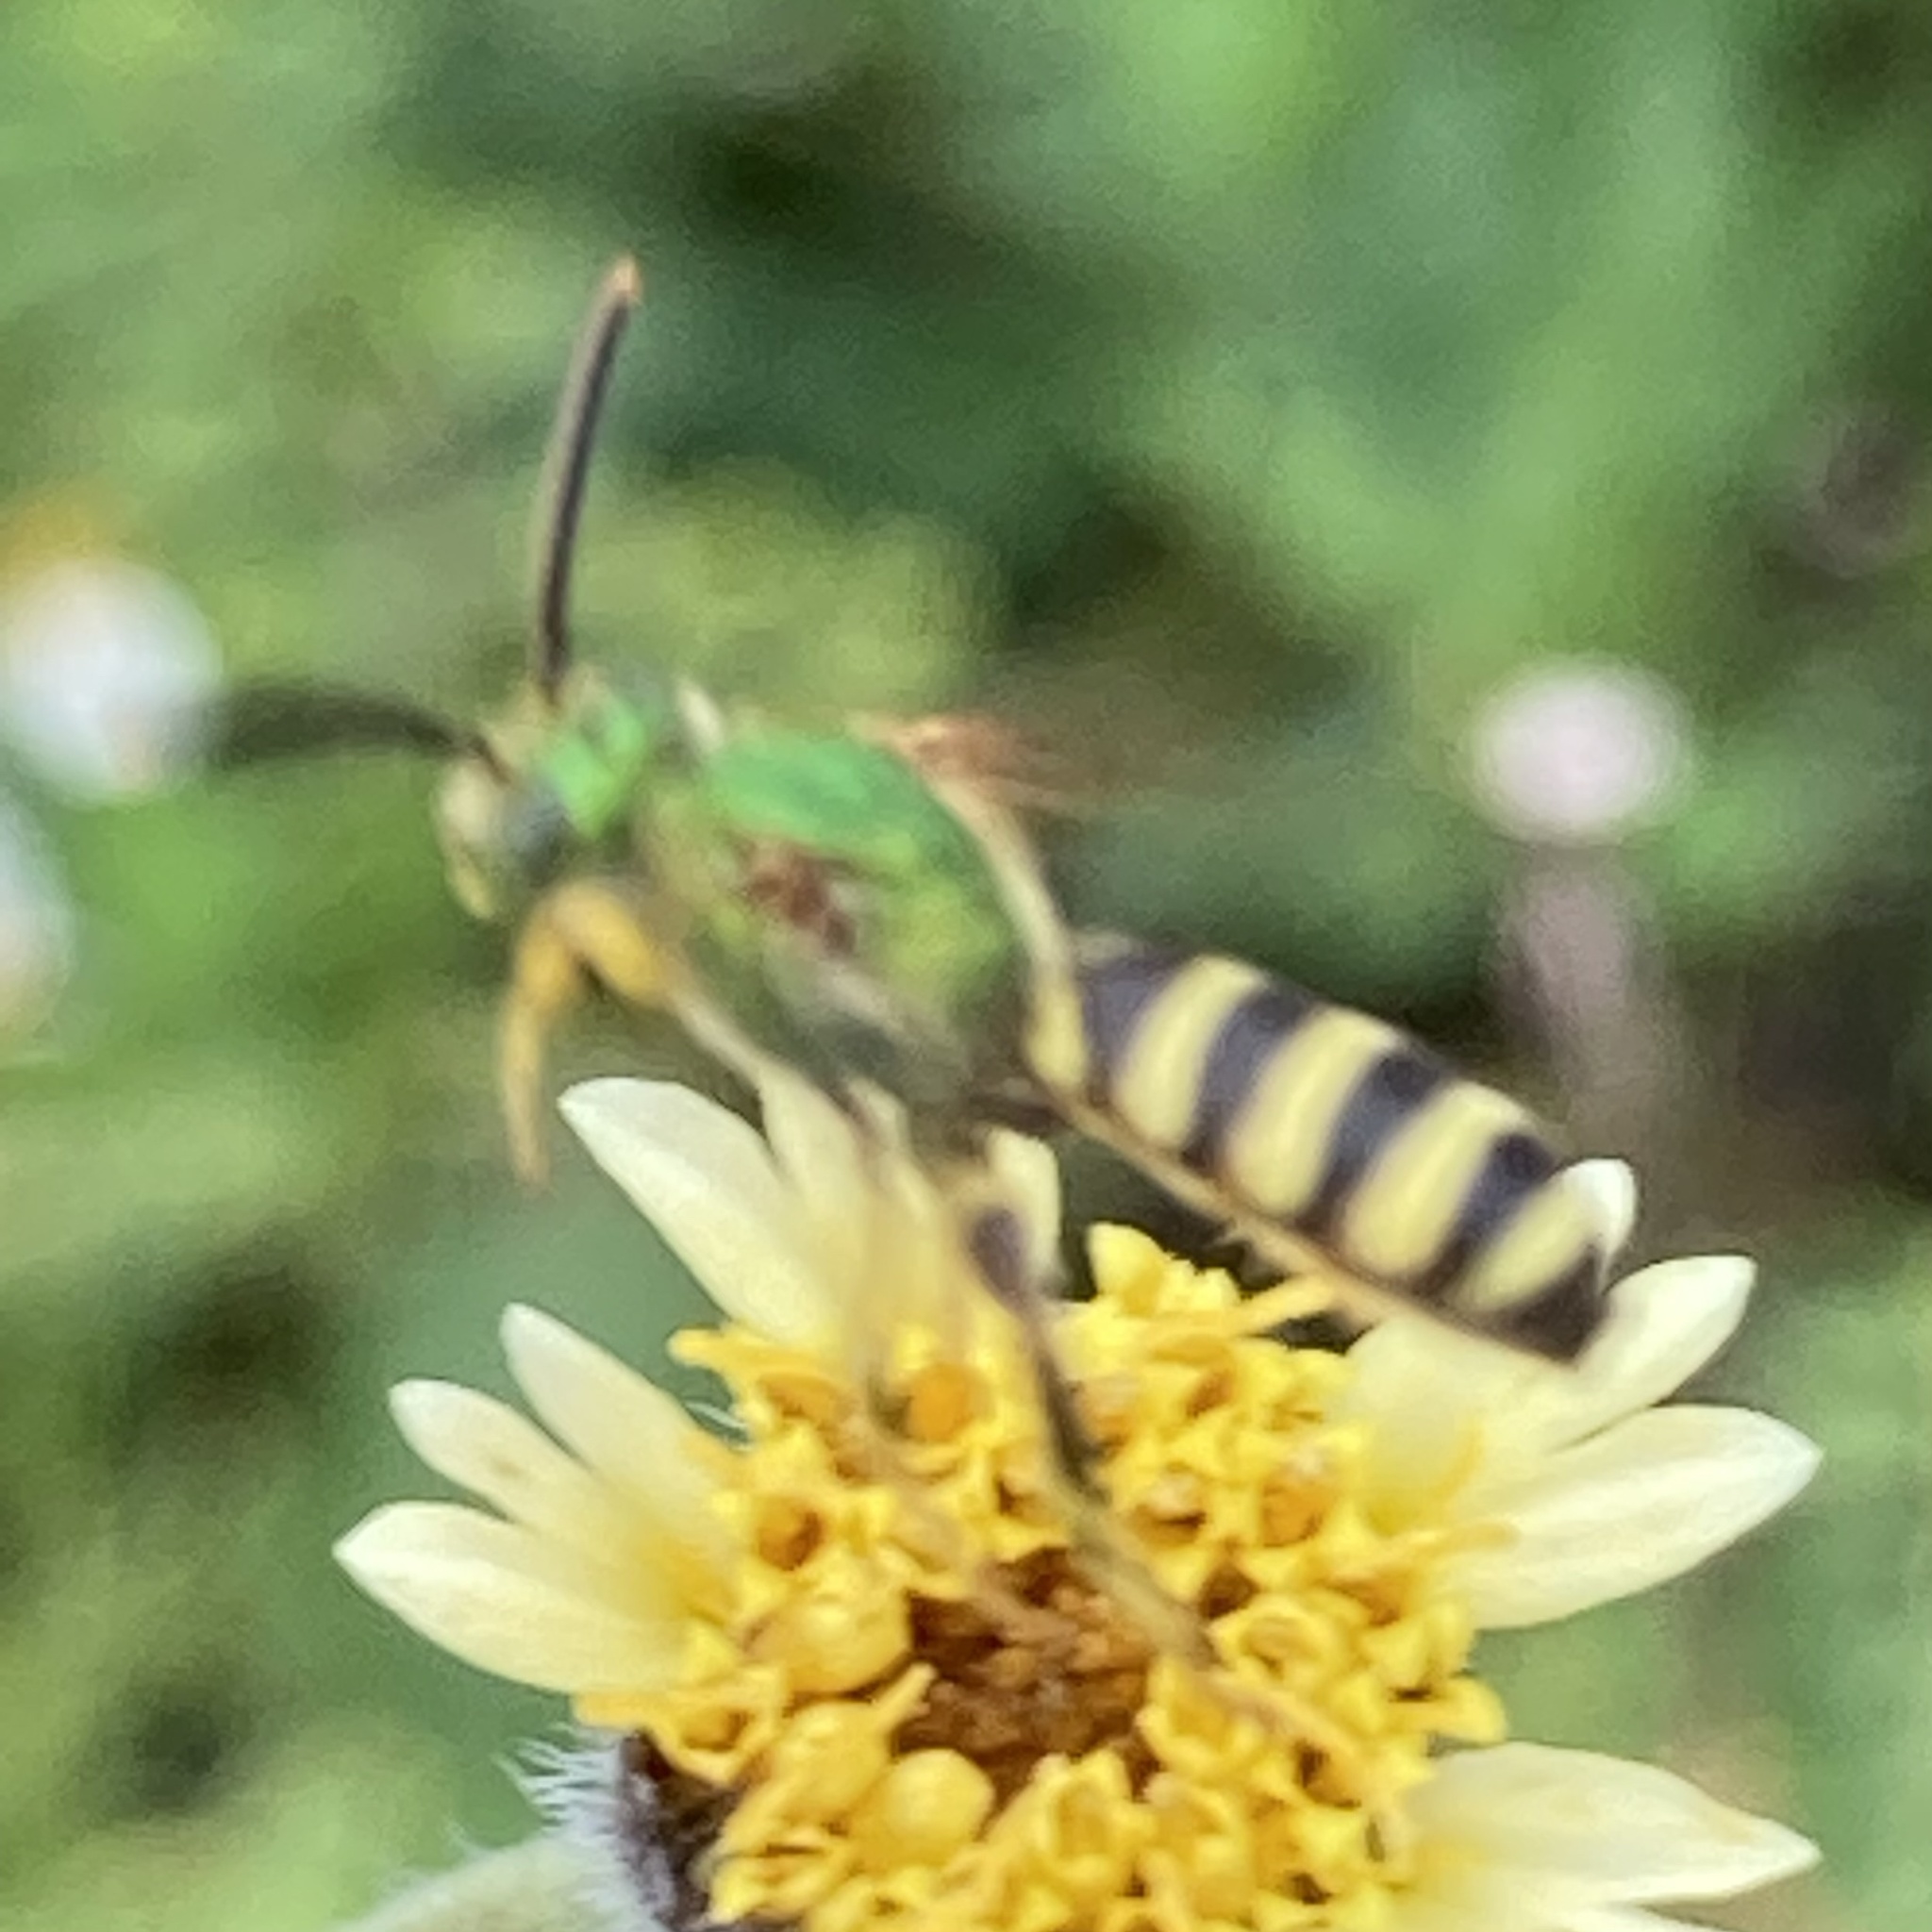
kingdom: Animalia
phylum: Arthropoda
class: Insecta
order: Hymenoptera
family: Halictidae
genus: Agapostemon
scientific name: Agapostemon splendens
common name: Brown-winged striped sweat bee
